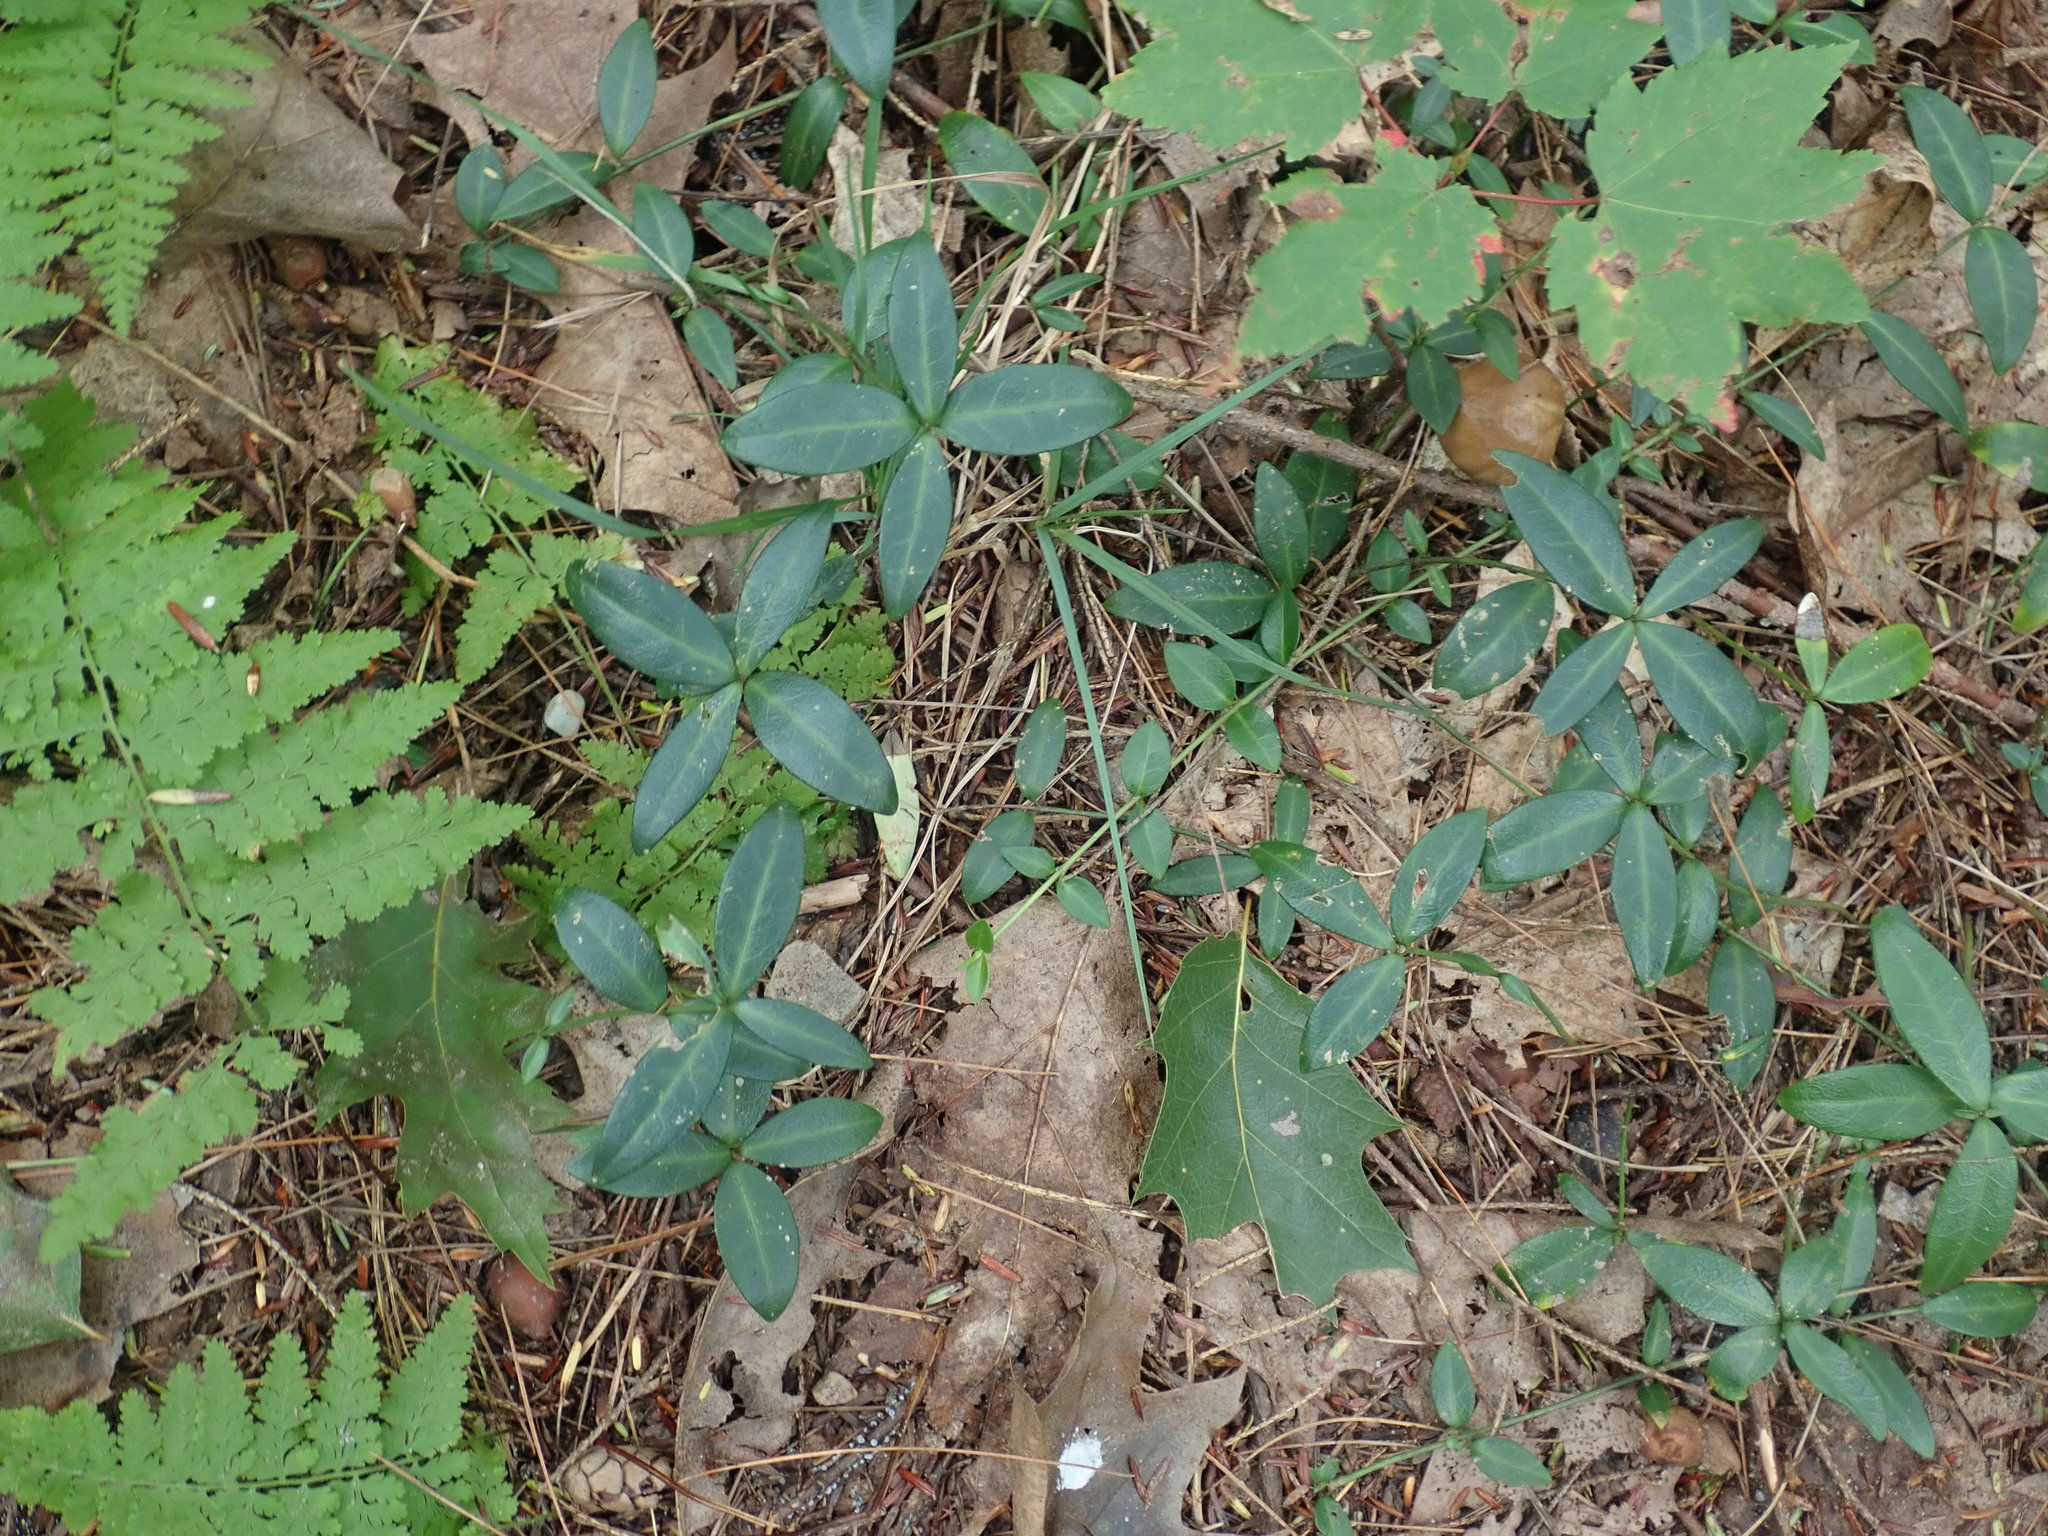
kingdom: Plantae
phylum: Tracheophyta
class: Magnoliopsida
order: Gentianales
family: Apocynaceae
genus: Vinca
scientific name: Vinca minor
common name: Lesser periwinkle
